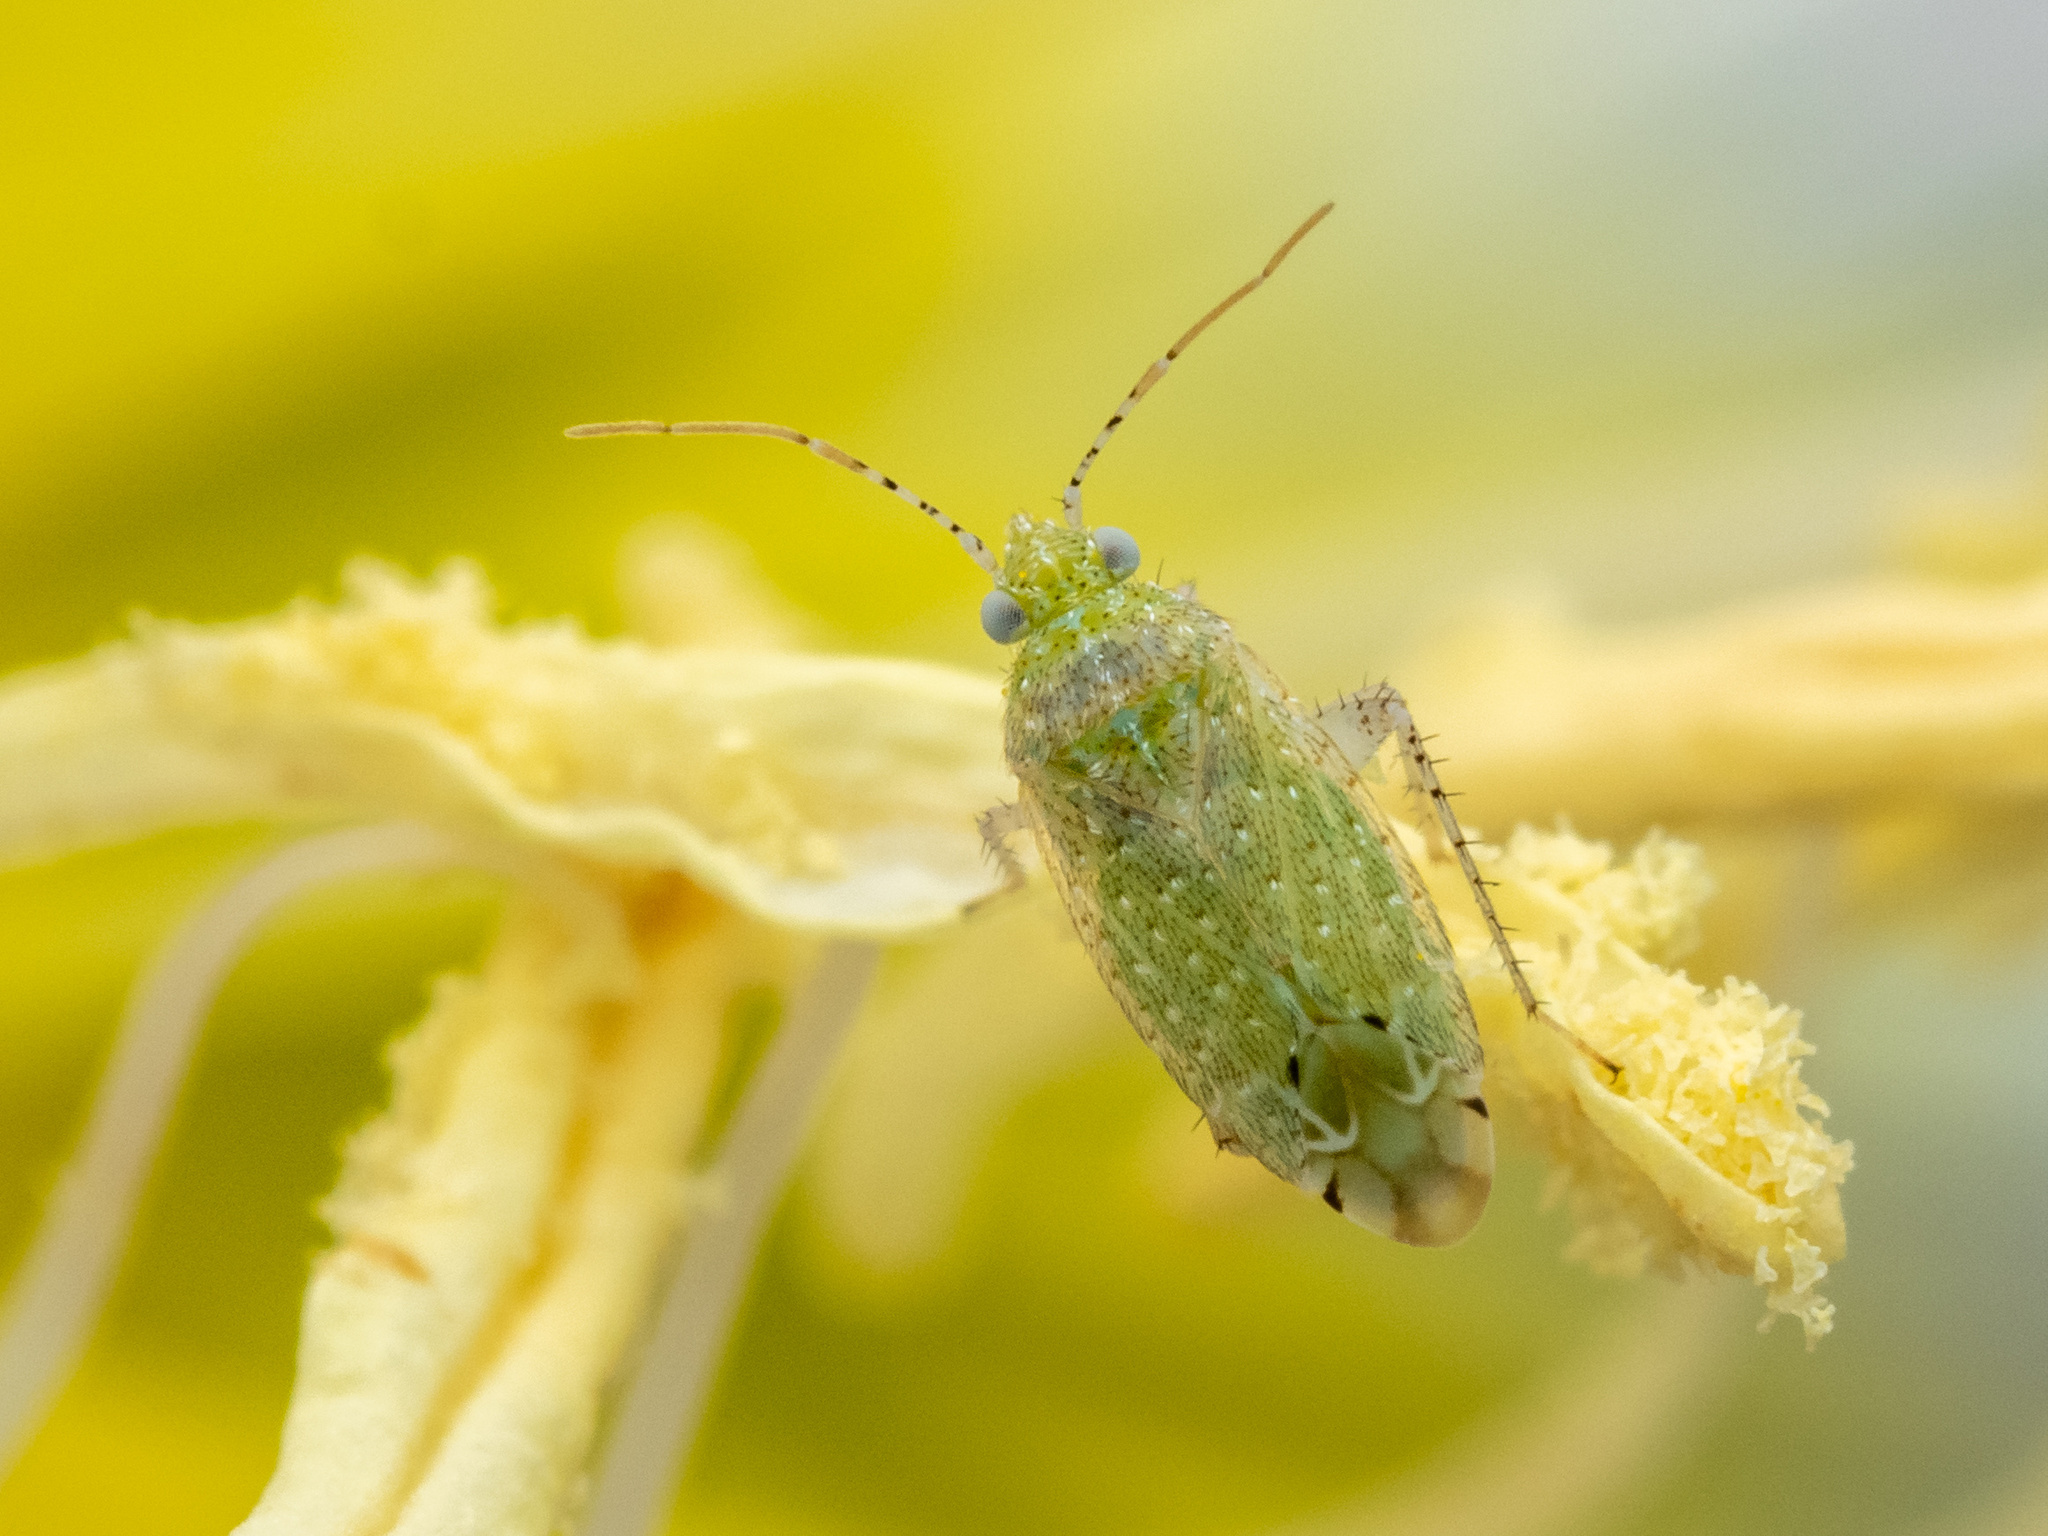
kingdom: Animalia
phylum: Arthropoda
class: Insecta
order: Hemiptera
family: Miridae
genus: Pseudatomoscelis
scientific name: Pseudatomoscelis seriatus
